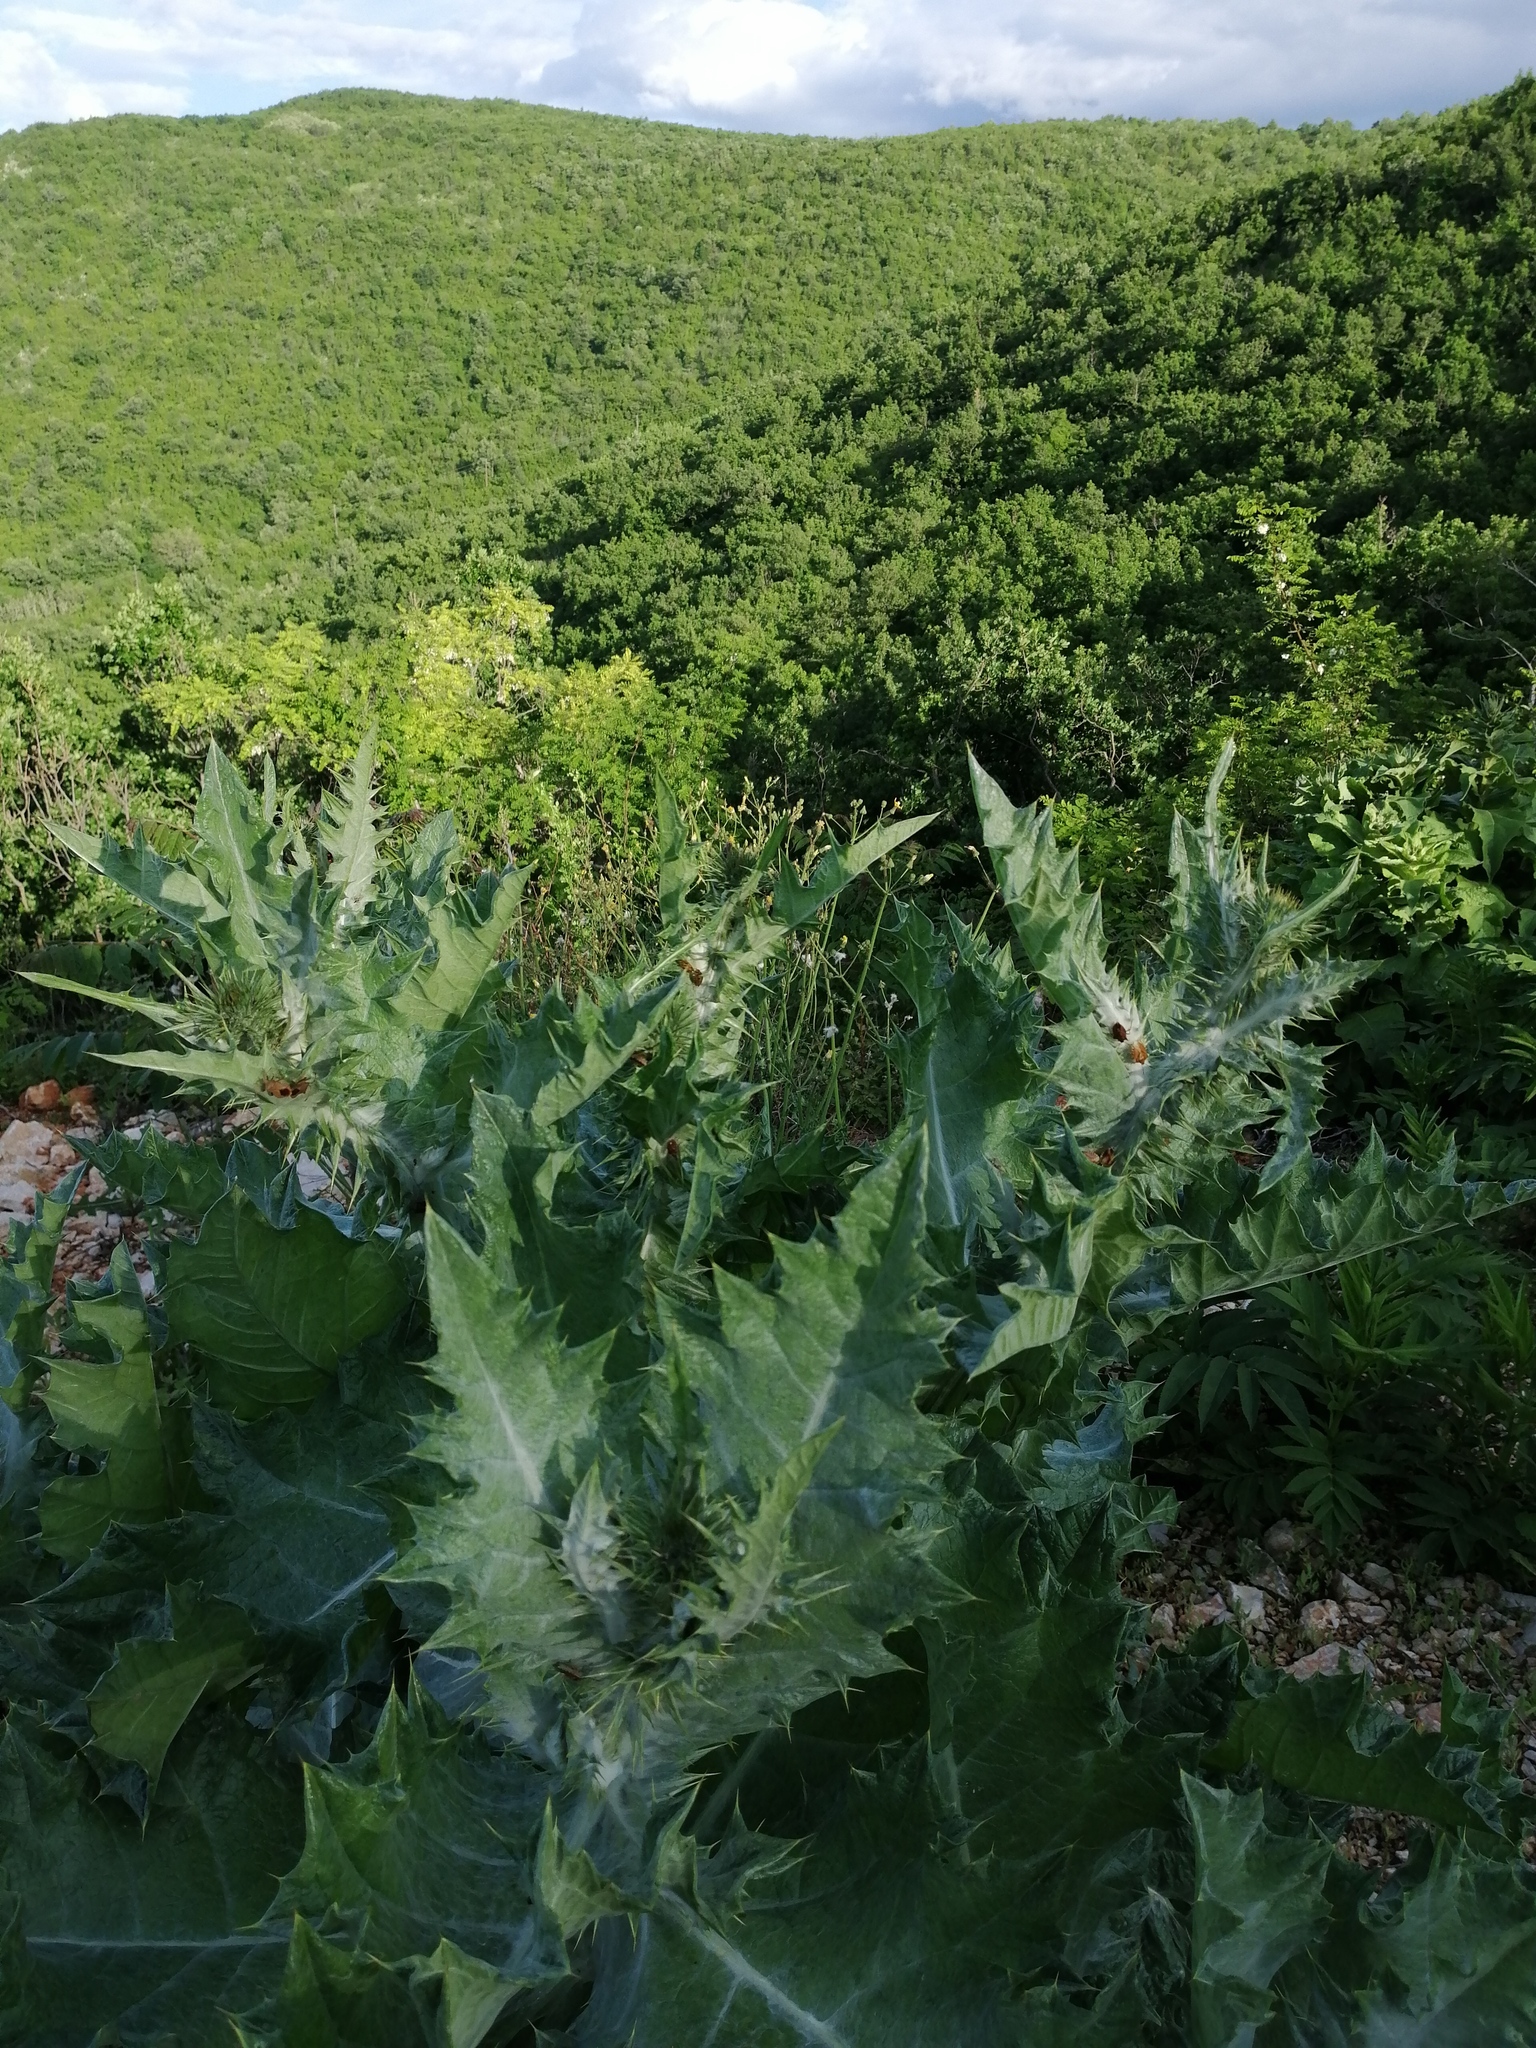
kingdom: Plantae
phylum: Tracheophyta
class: Magnoliopsida
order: Asterales
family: Asteraceae
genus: Onopordum
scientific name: Onopordum acanthium
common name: Scotch thistle
